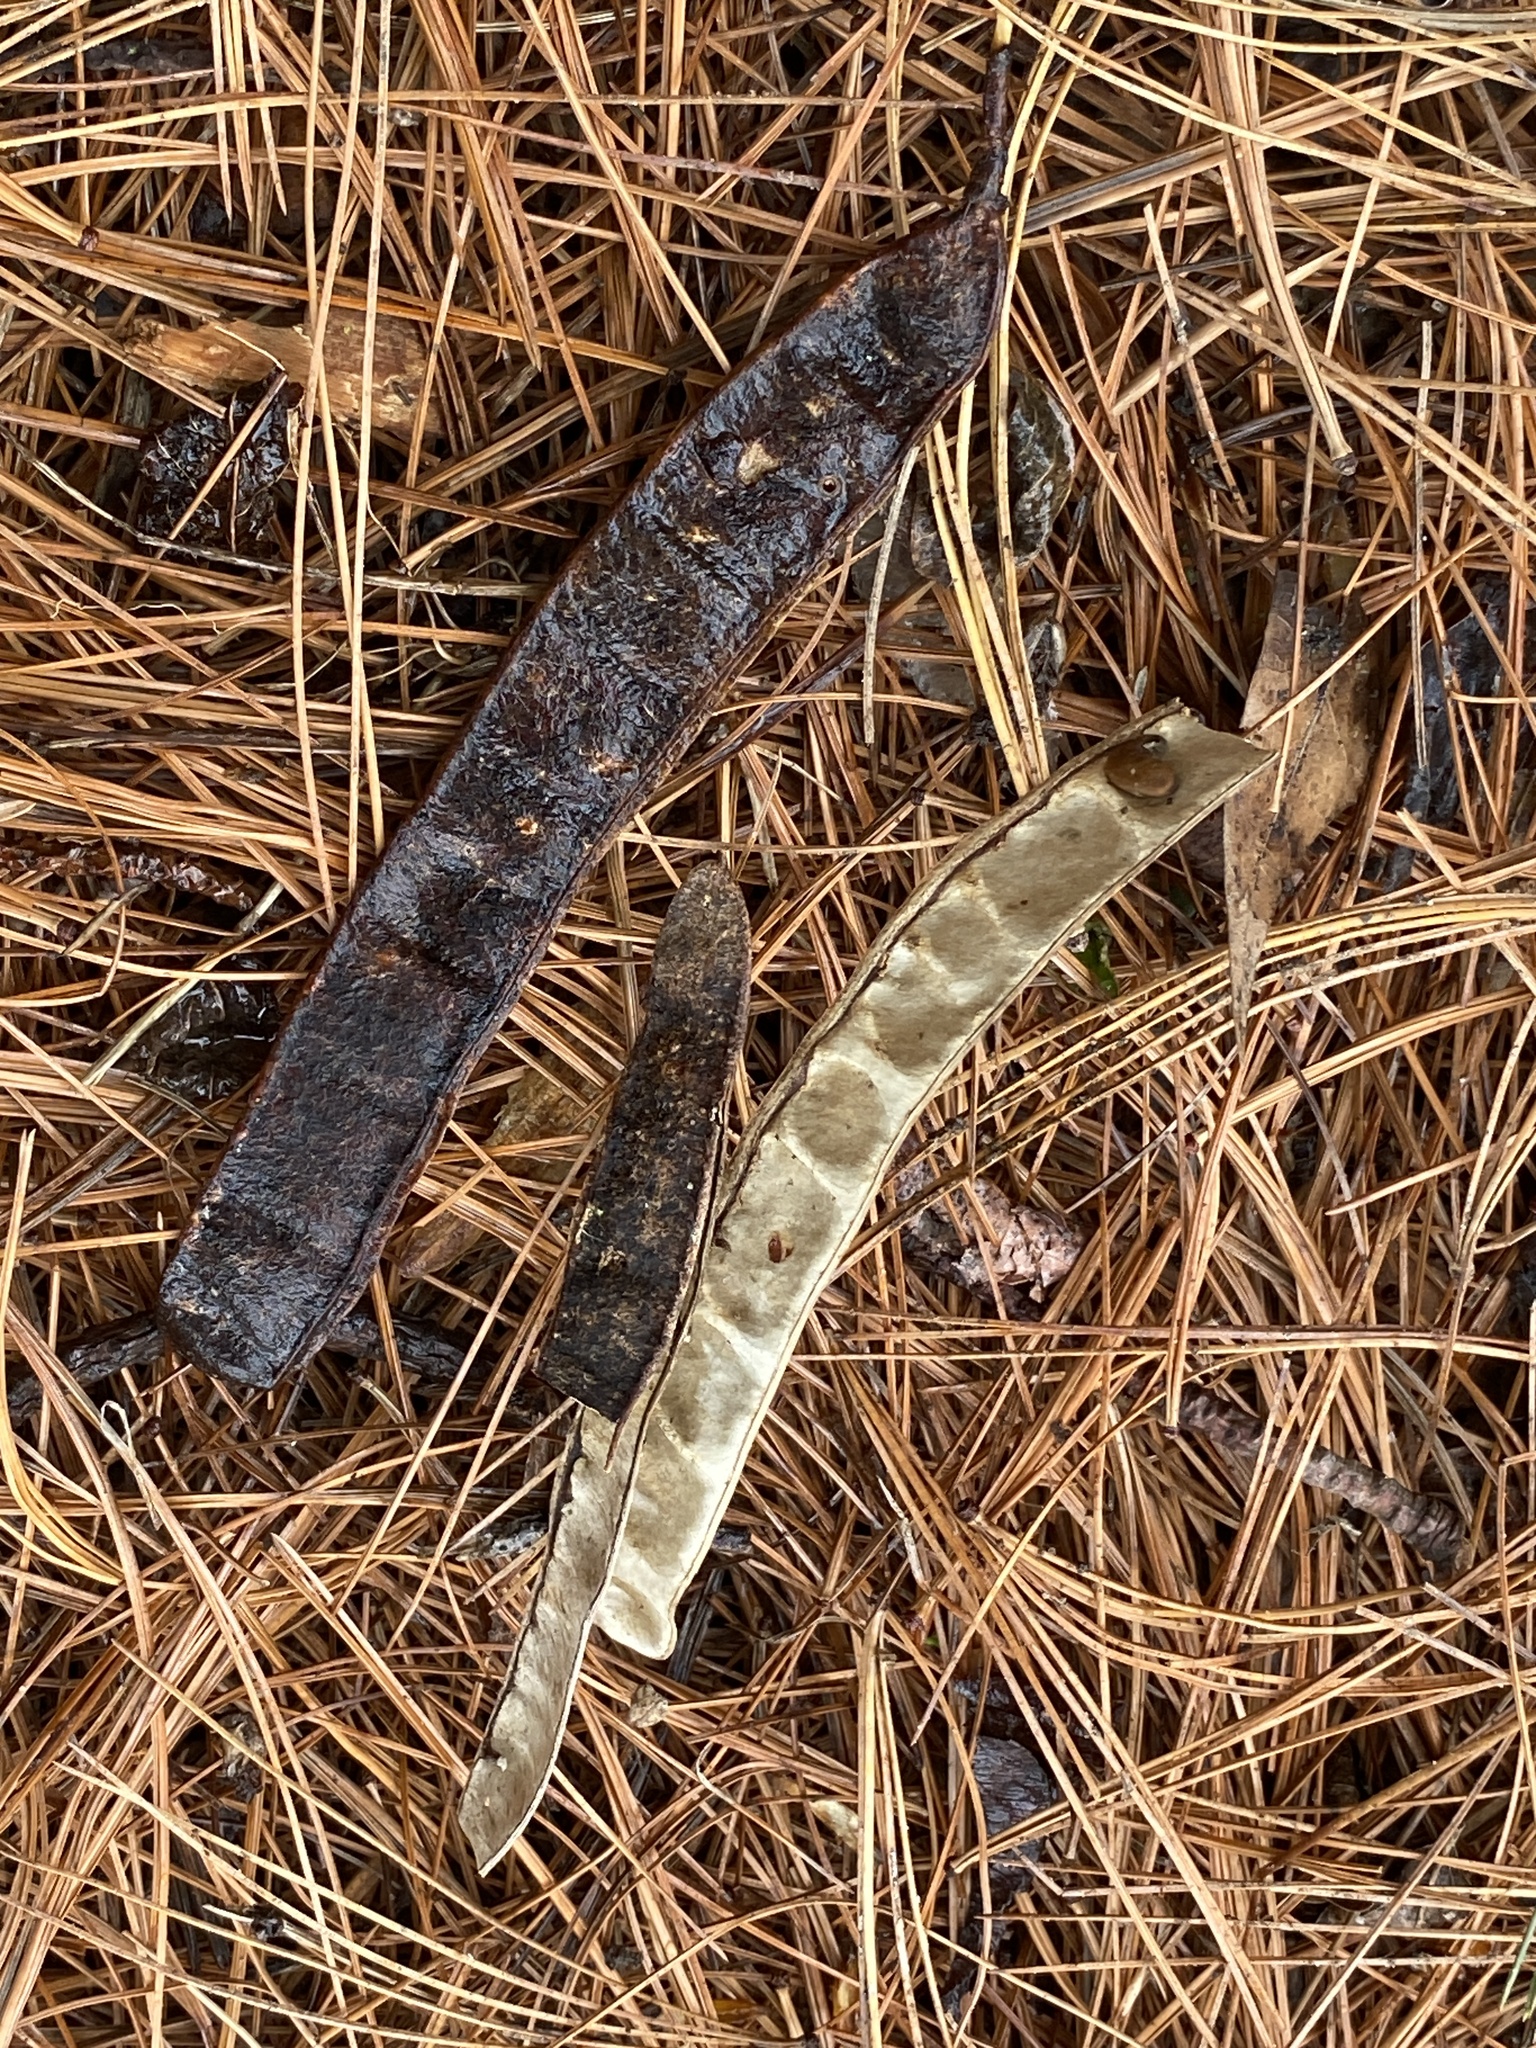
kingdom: Plantae
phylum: Tracheophyta
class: Magnoliopsida
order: Fabales
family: Fabaceae
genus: Robinia
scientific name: Robinia pseudoacacia
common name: Black locust
